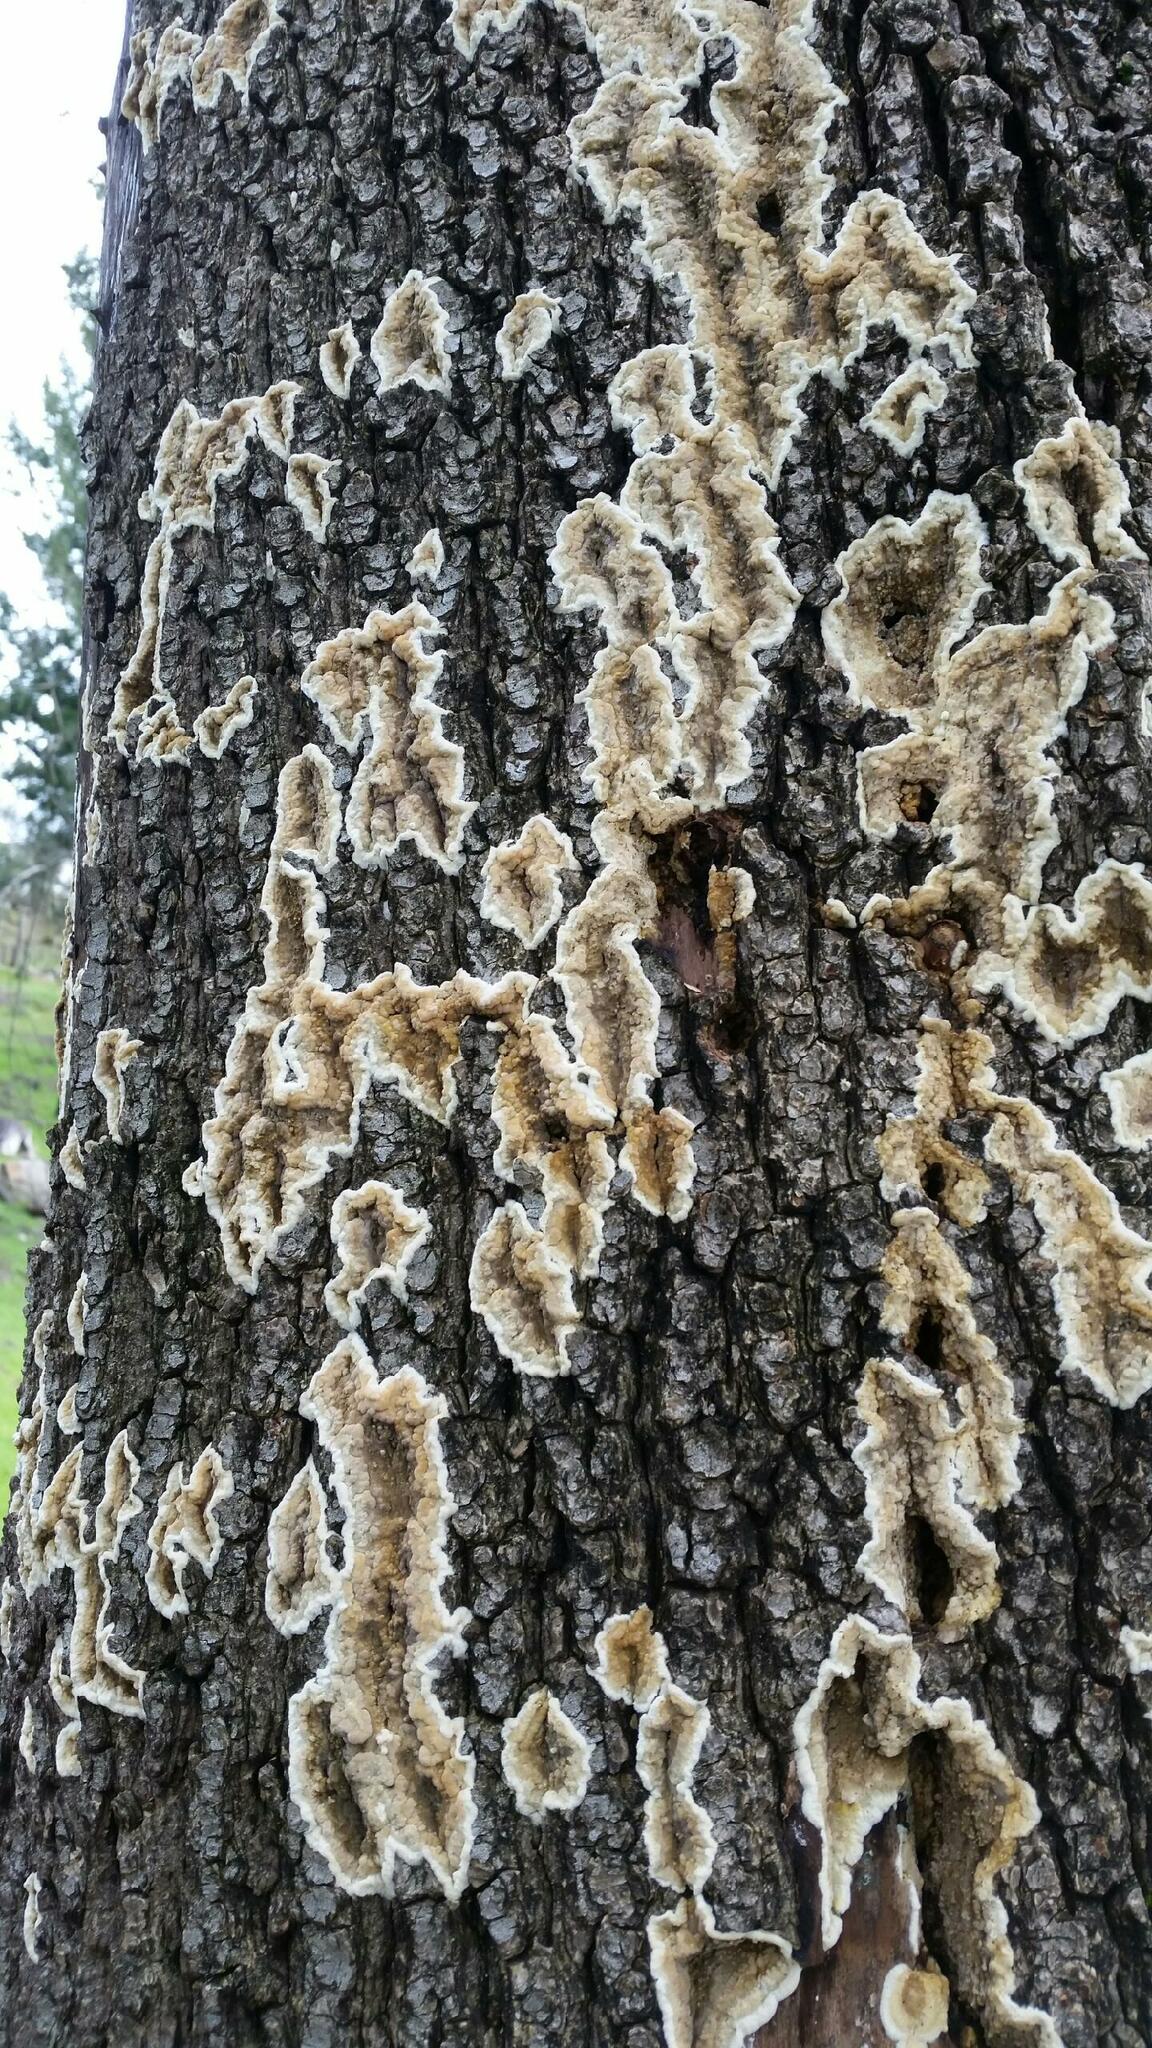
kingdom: Fungi
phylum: Basidiomycota
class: Agaricomycetes
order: Boletales
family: Coniophoraceae
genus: Coniophora
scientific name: Coniophora puteana
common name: Cellar fungus
